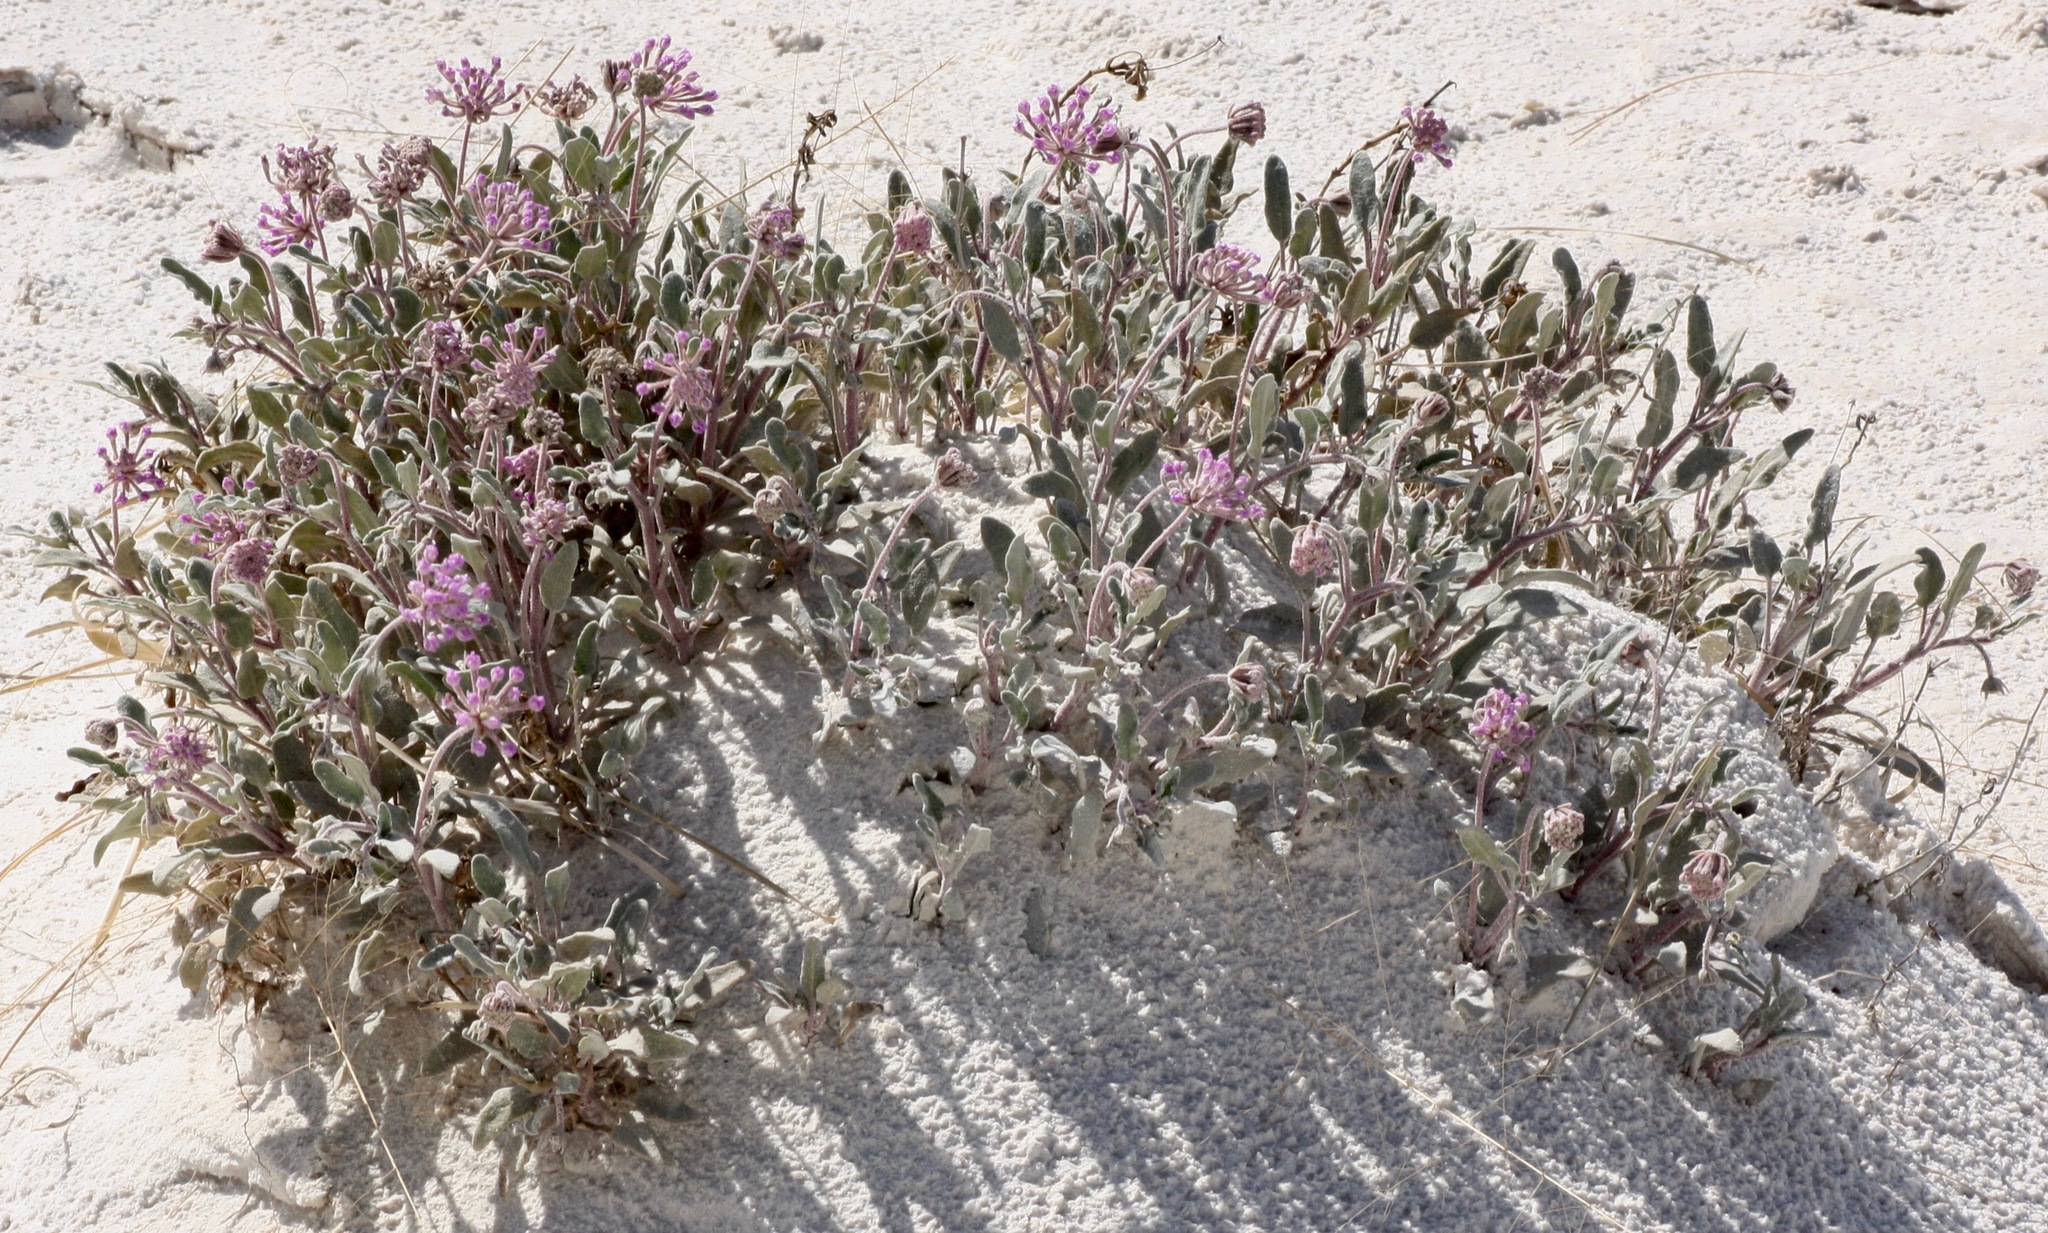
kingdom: Plantae
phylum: Tracheophyta
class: Magnoliopsida
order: Caryophyllales
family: Nyctaginaceae
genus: Abronia
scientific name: Abronia angustifolia
